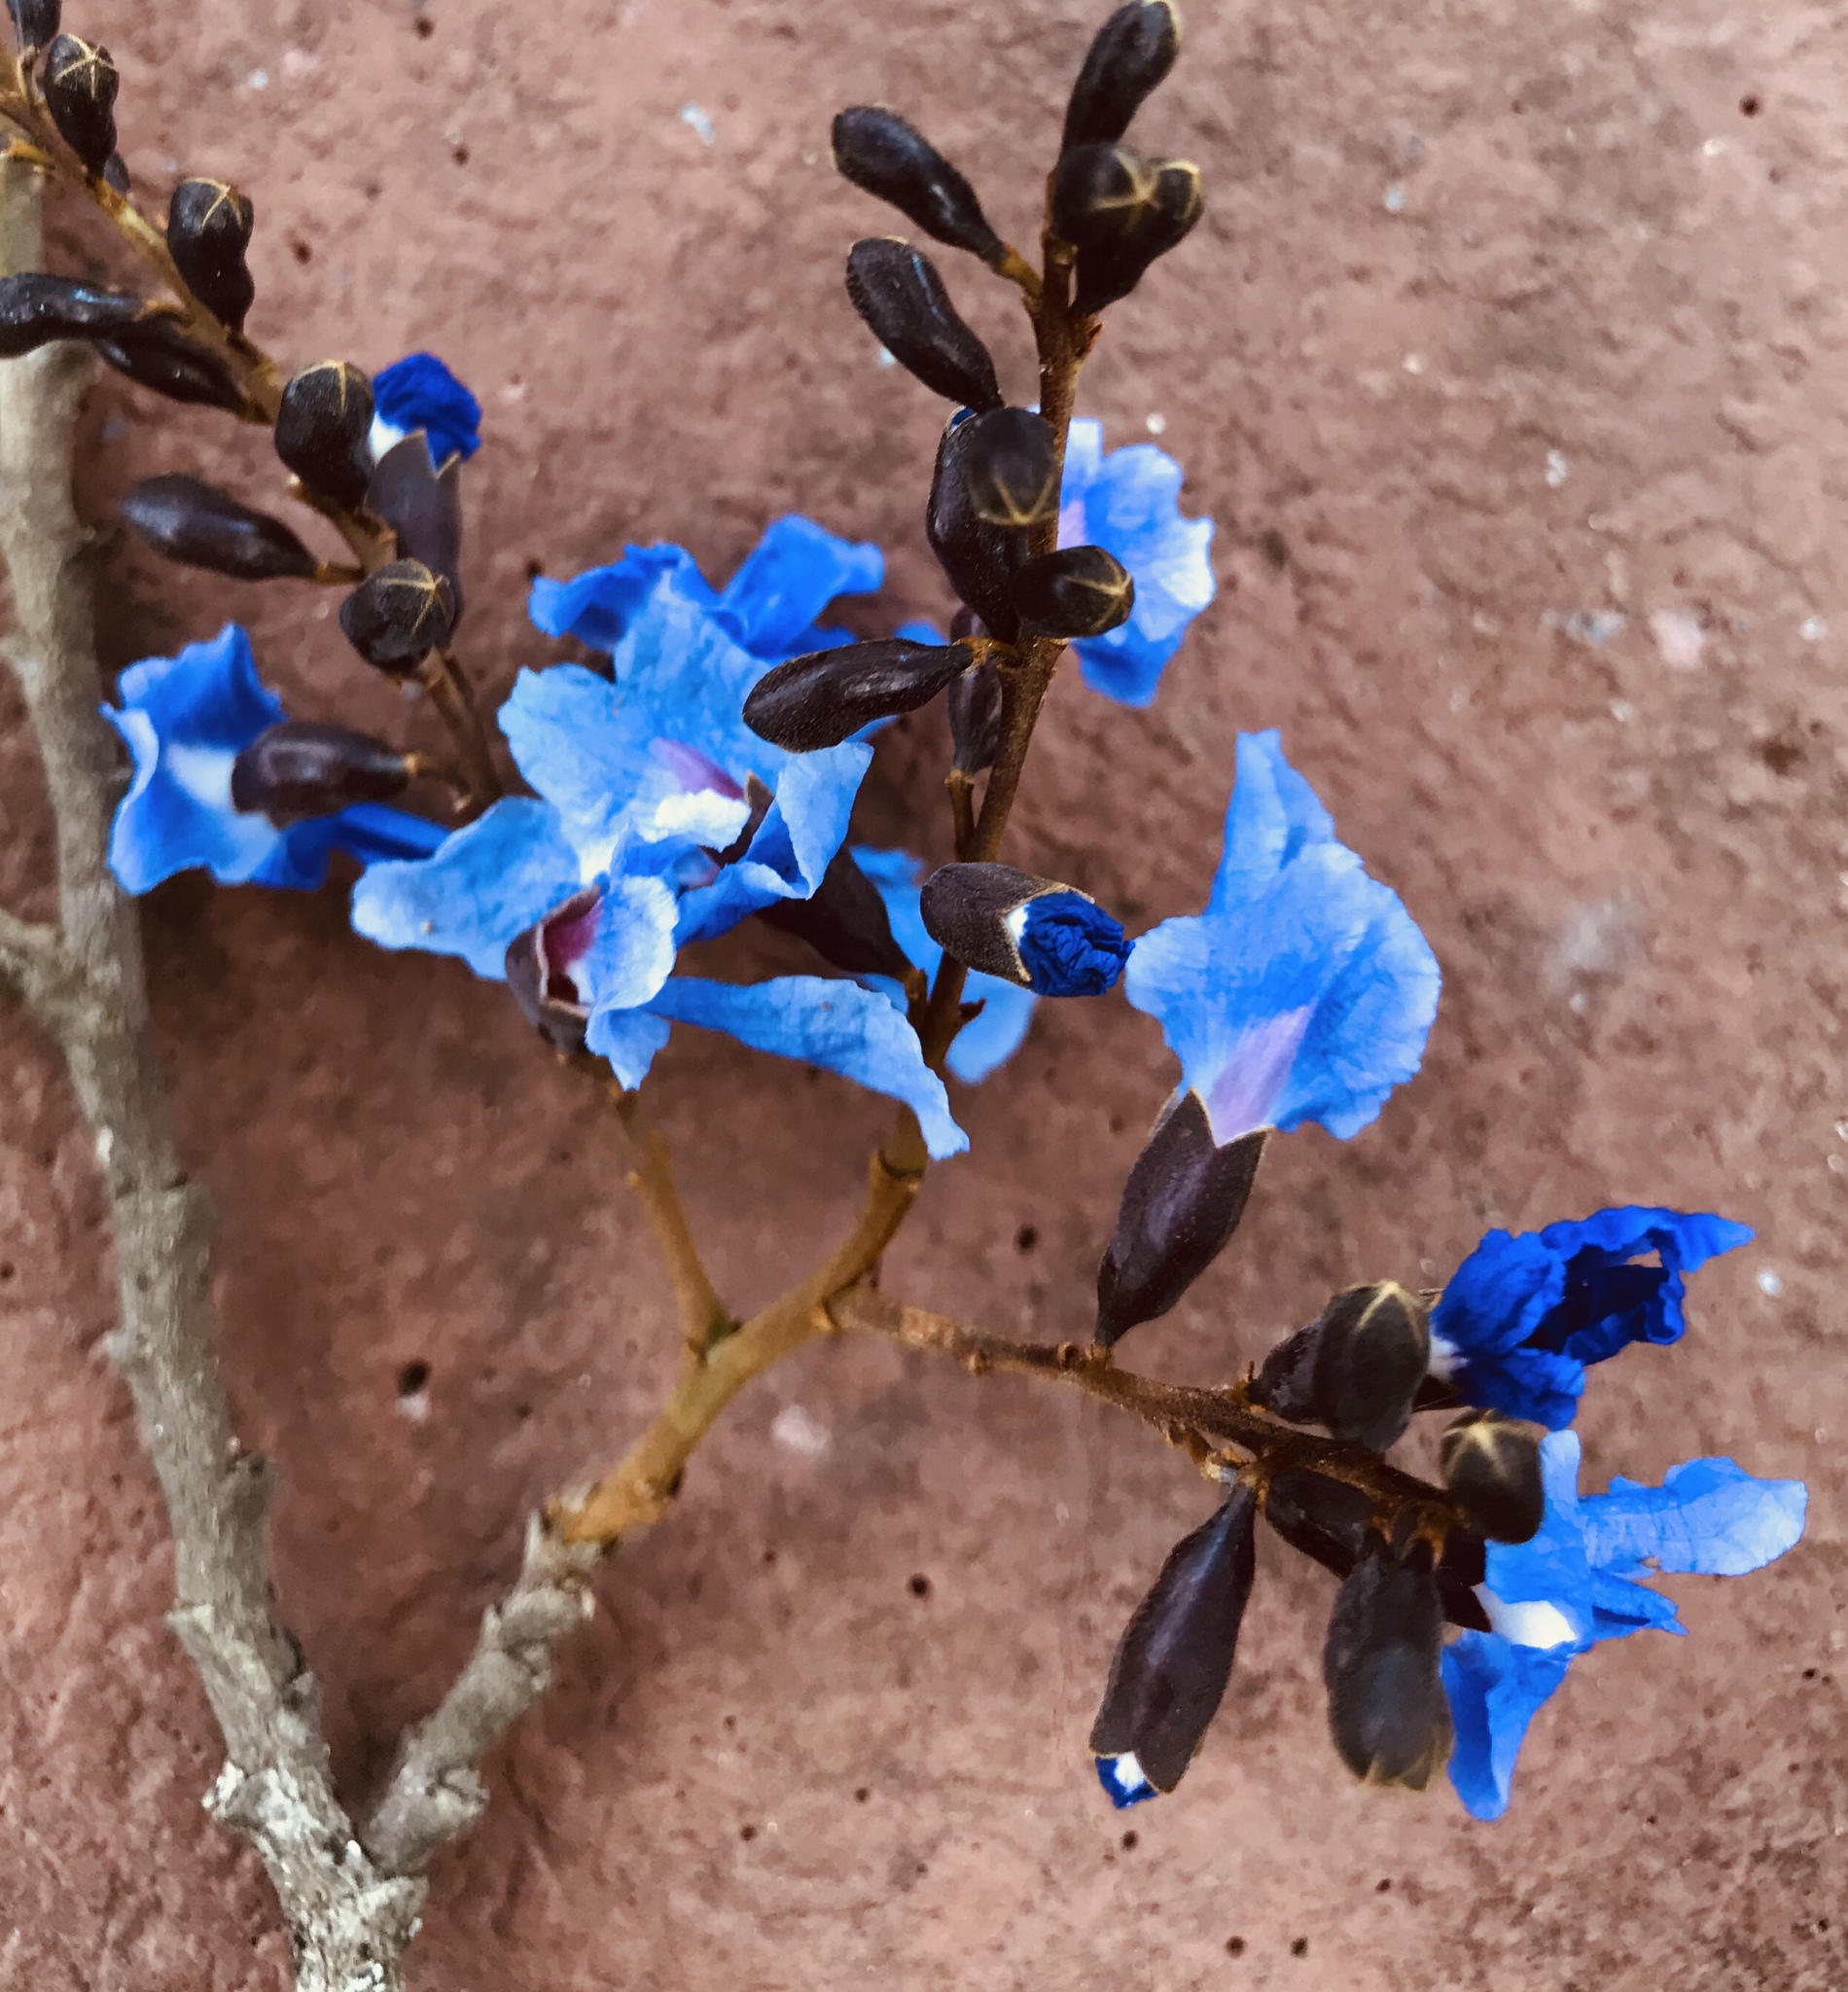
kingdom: Plantae
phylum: Tracheophyta
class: Magnoliopsida
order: Fabales
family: Fabaceae
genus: Bowdichia
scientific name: Bowdichia virgilioides
